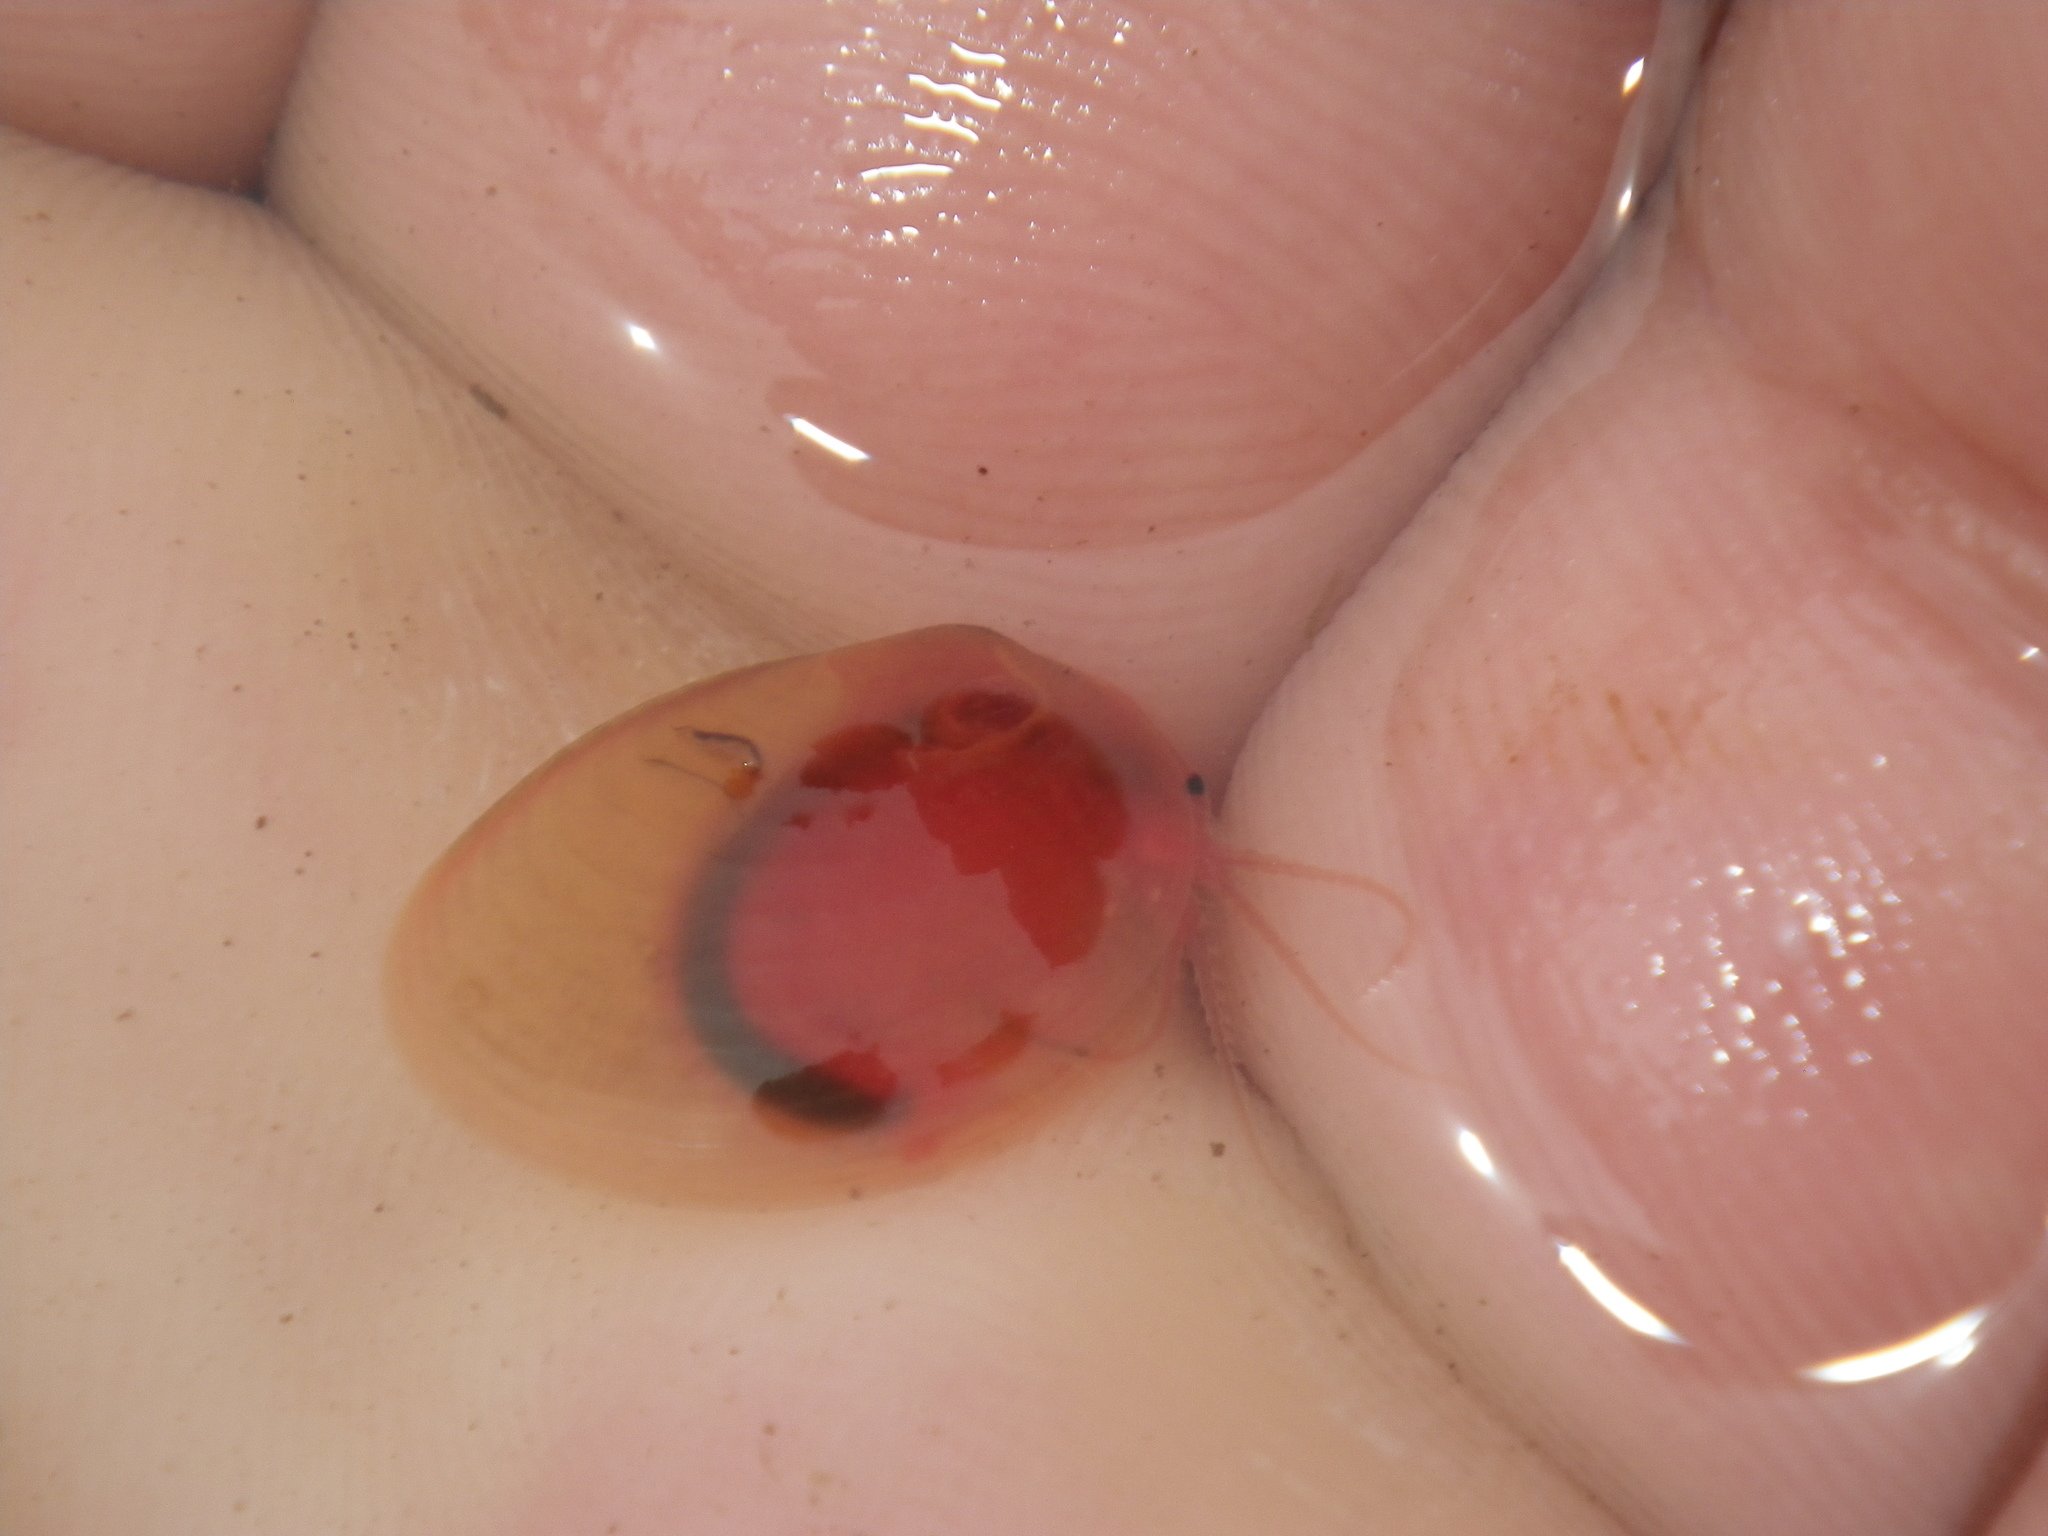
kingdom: Animalia
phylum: Arthropoda
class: Branchiopoda
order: Diplostraca
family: Cyzicidae
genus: Cyzicus
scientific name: Cyzicus californicus
